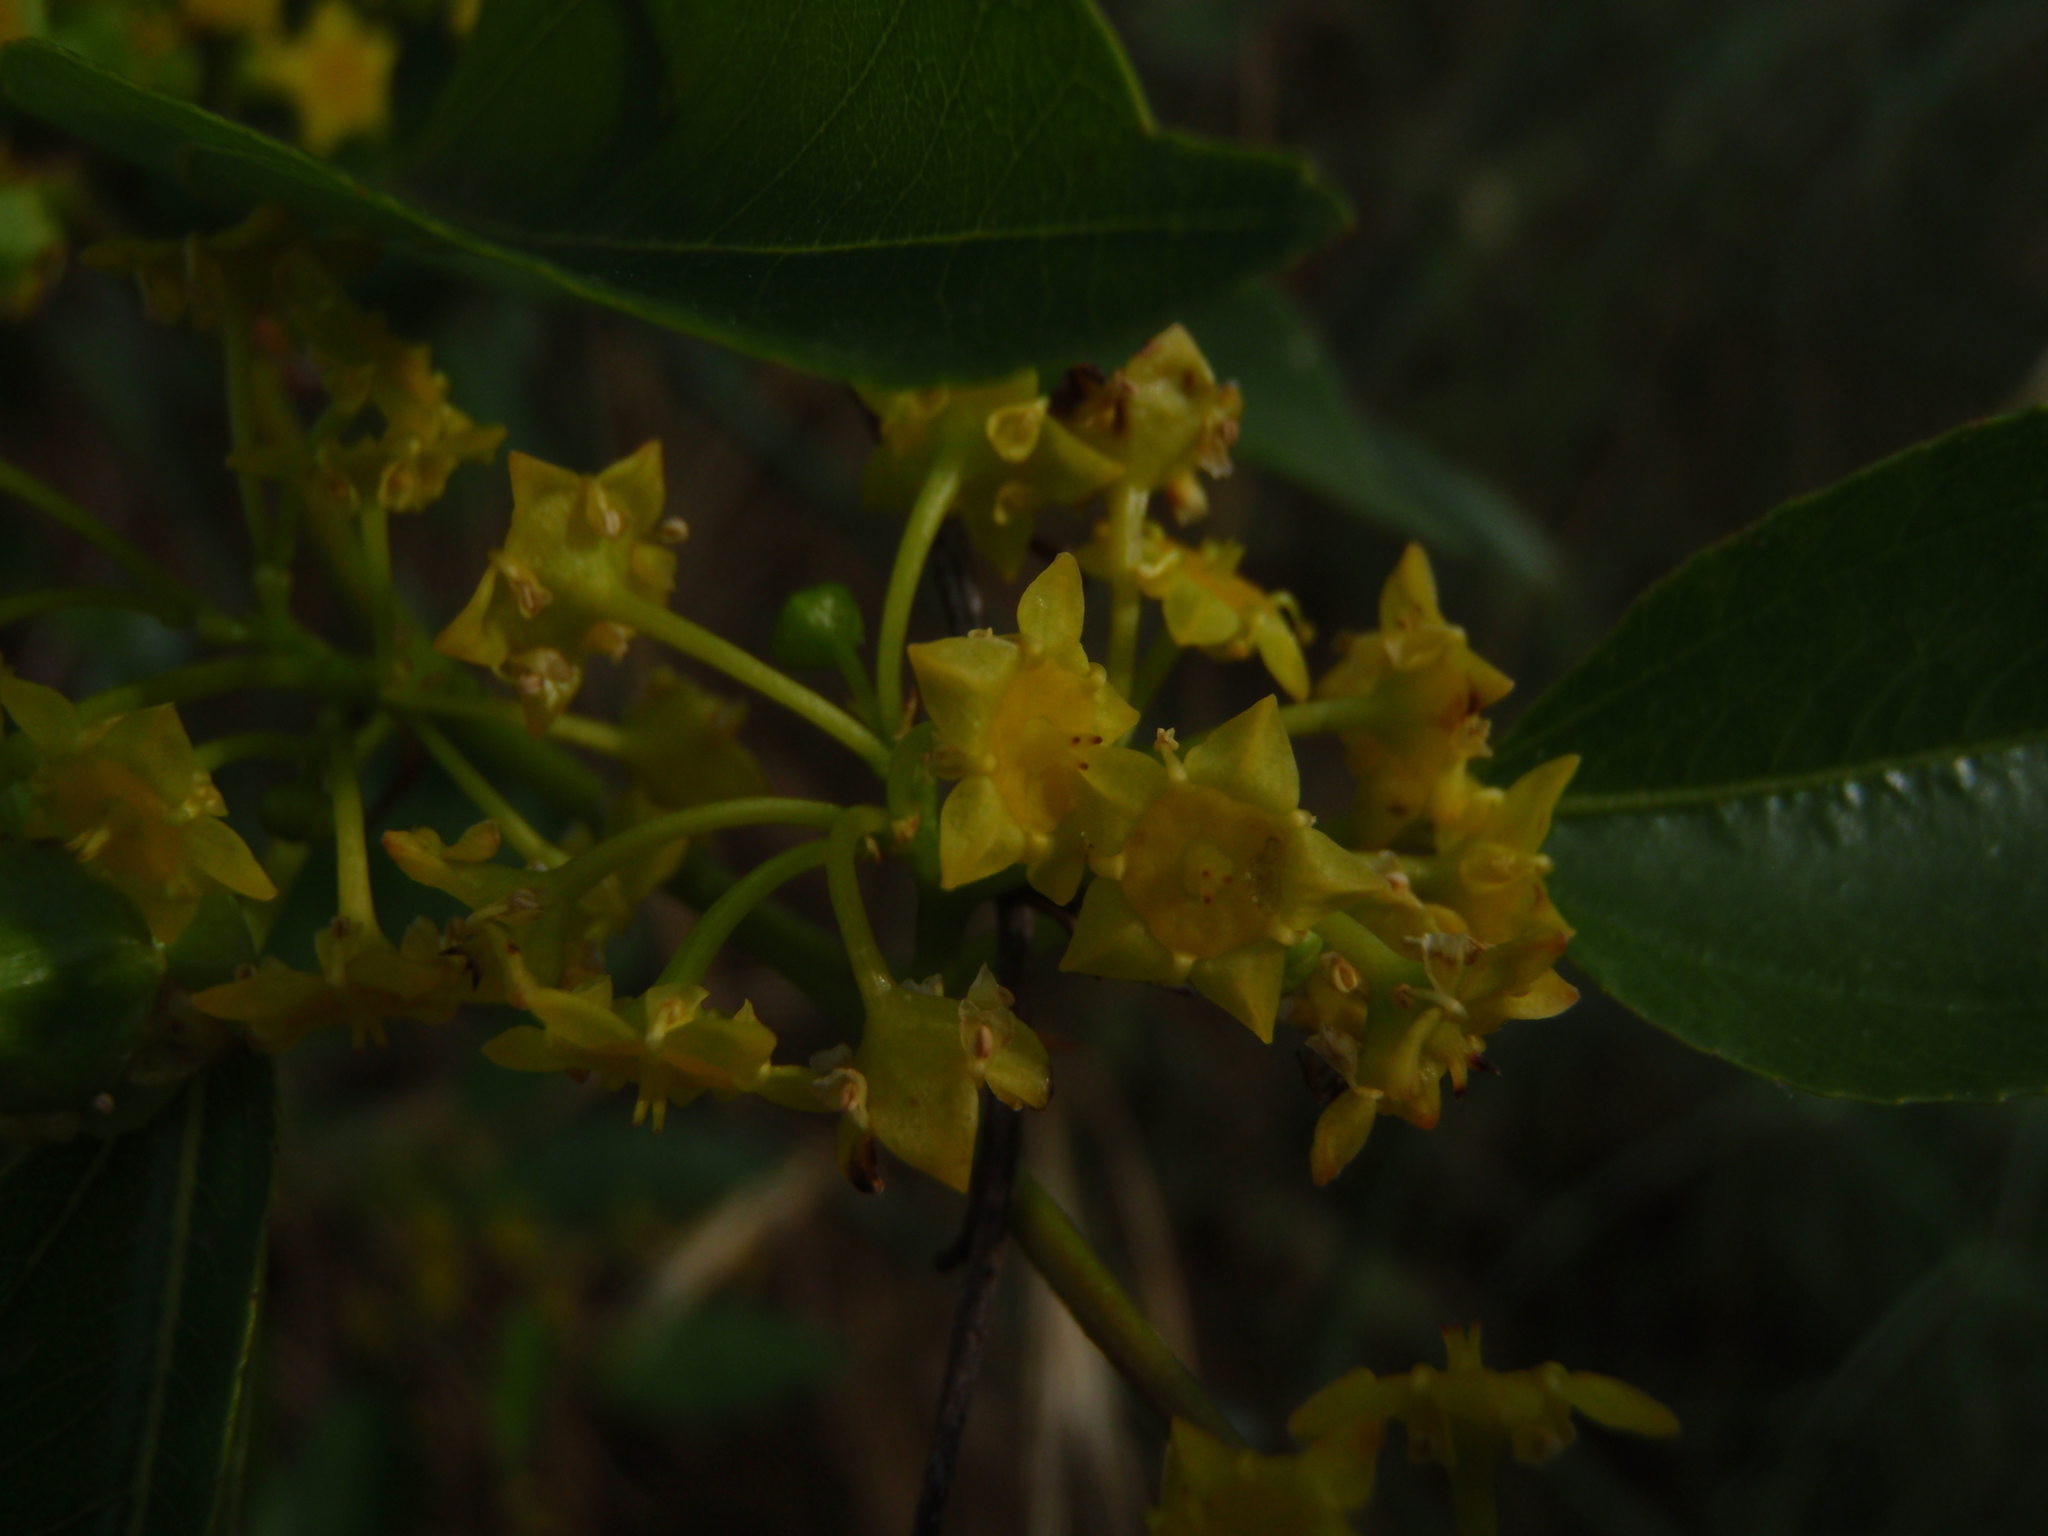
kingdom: Plantae
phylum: Tracheophyta
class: Magnoliopsida
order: Rosales
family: Rhamnaceae
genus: Paliurus
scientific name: Paliurus spina-christi
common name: Jeruselem thorn
